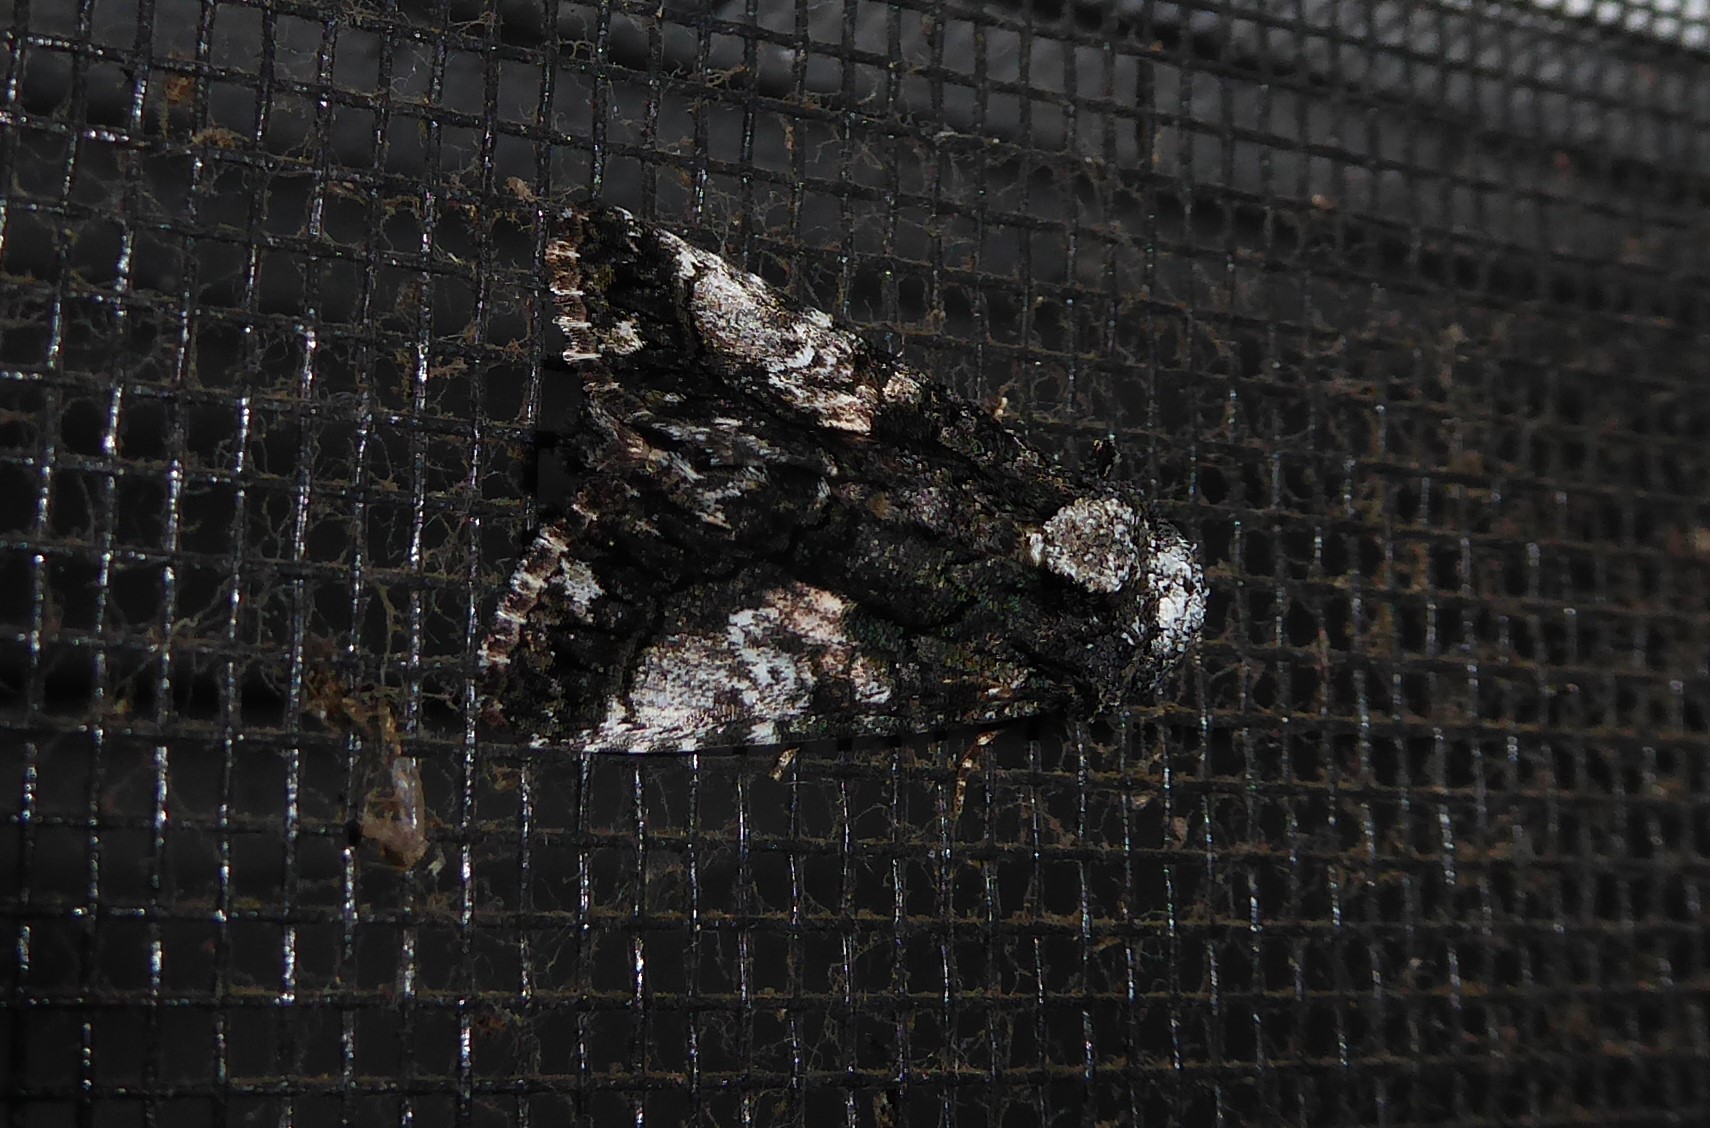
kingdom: Animalia
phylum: Arthropoda
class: Insecta
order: Lepidoptera
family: Noctuidae
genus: Aedia
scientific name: Aedia leucomelas
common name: Sorcerer
